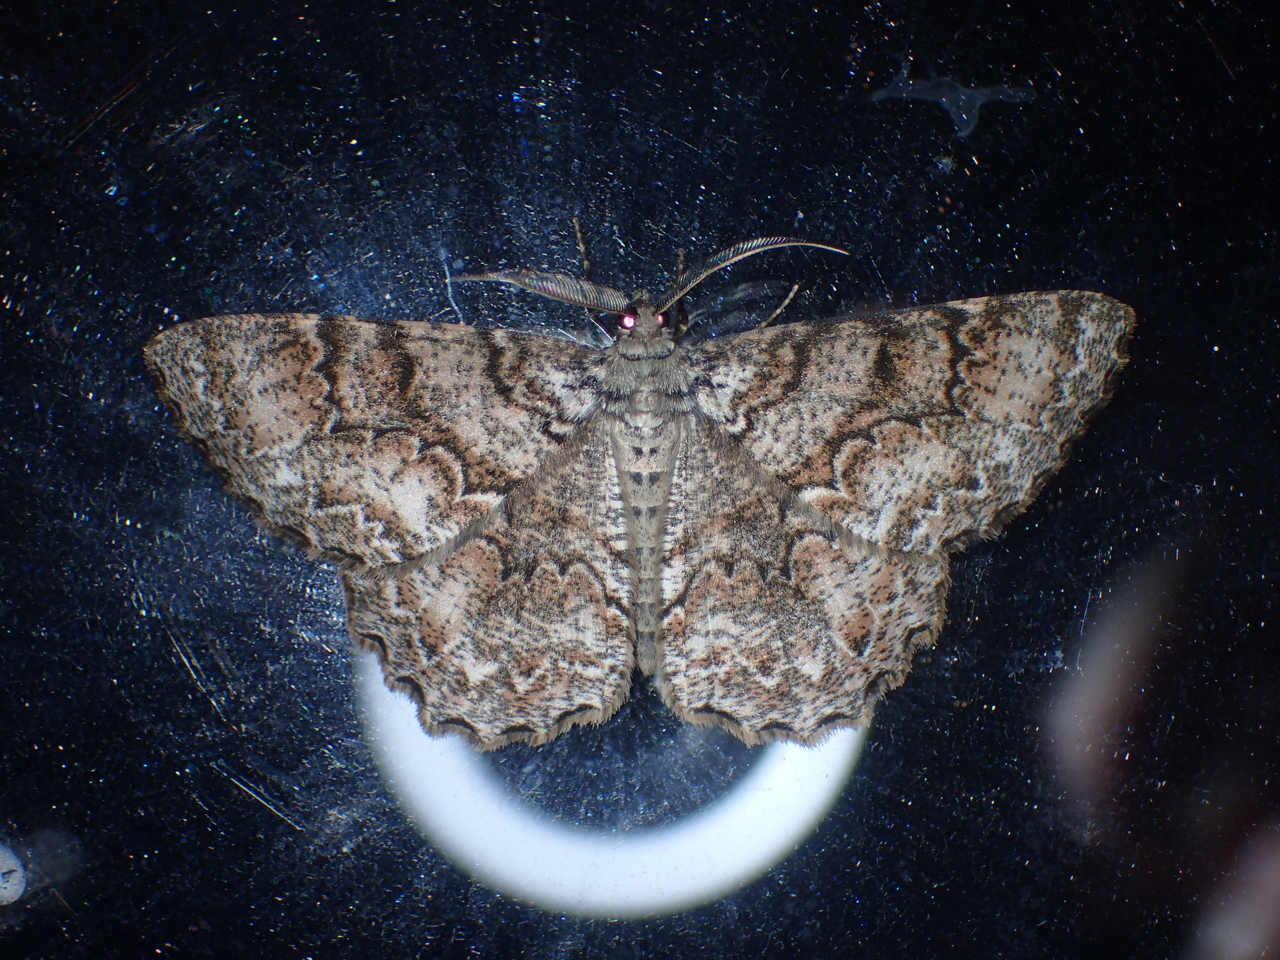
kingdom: Animalia
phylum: Arthropoda
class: Insecta
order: Lepidoptera
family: Geometridae
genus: Epimecis
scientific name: Epimecis hortaria
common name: Tulip-tree beauty
